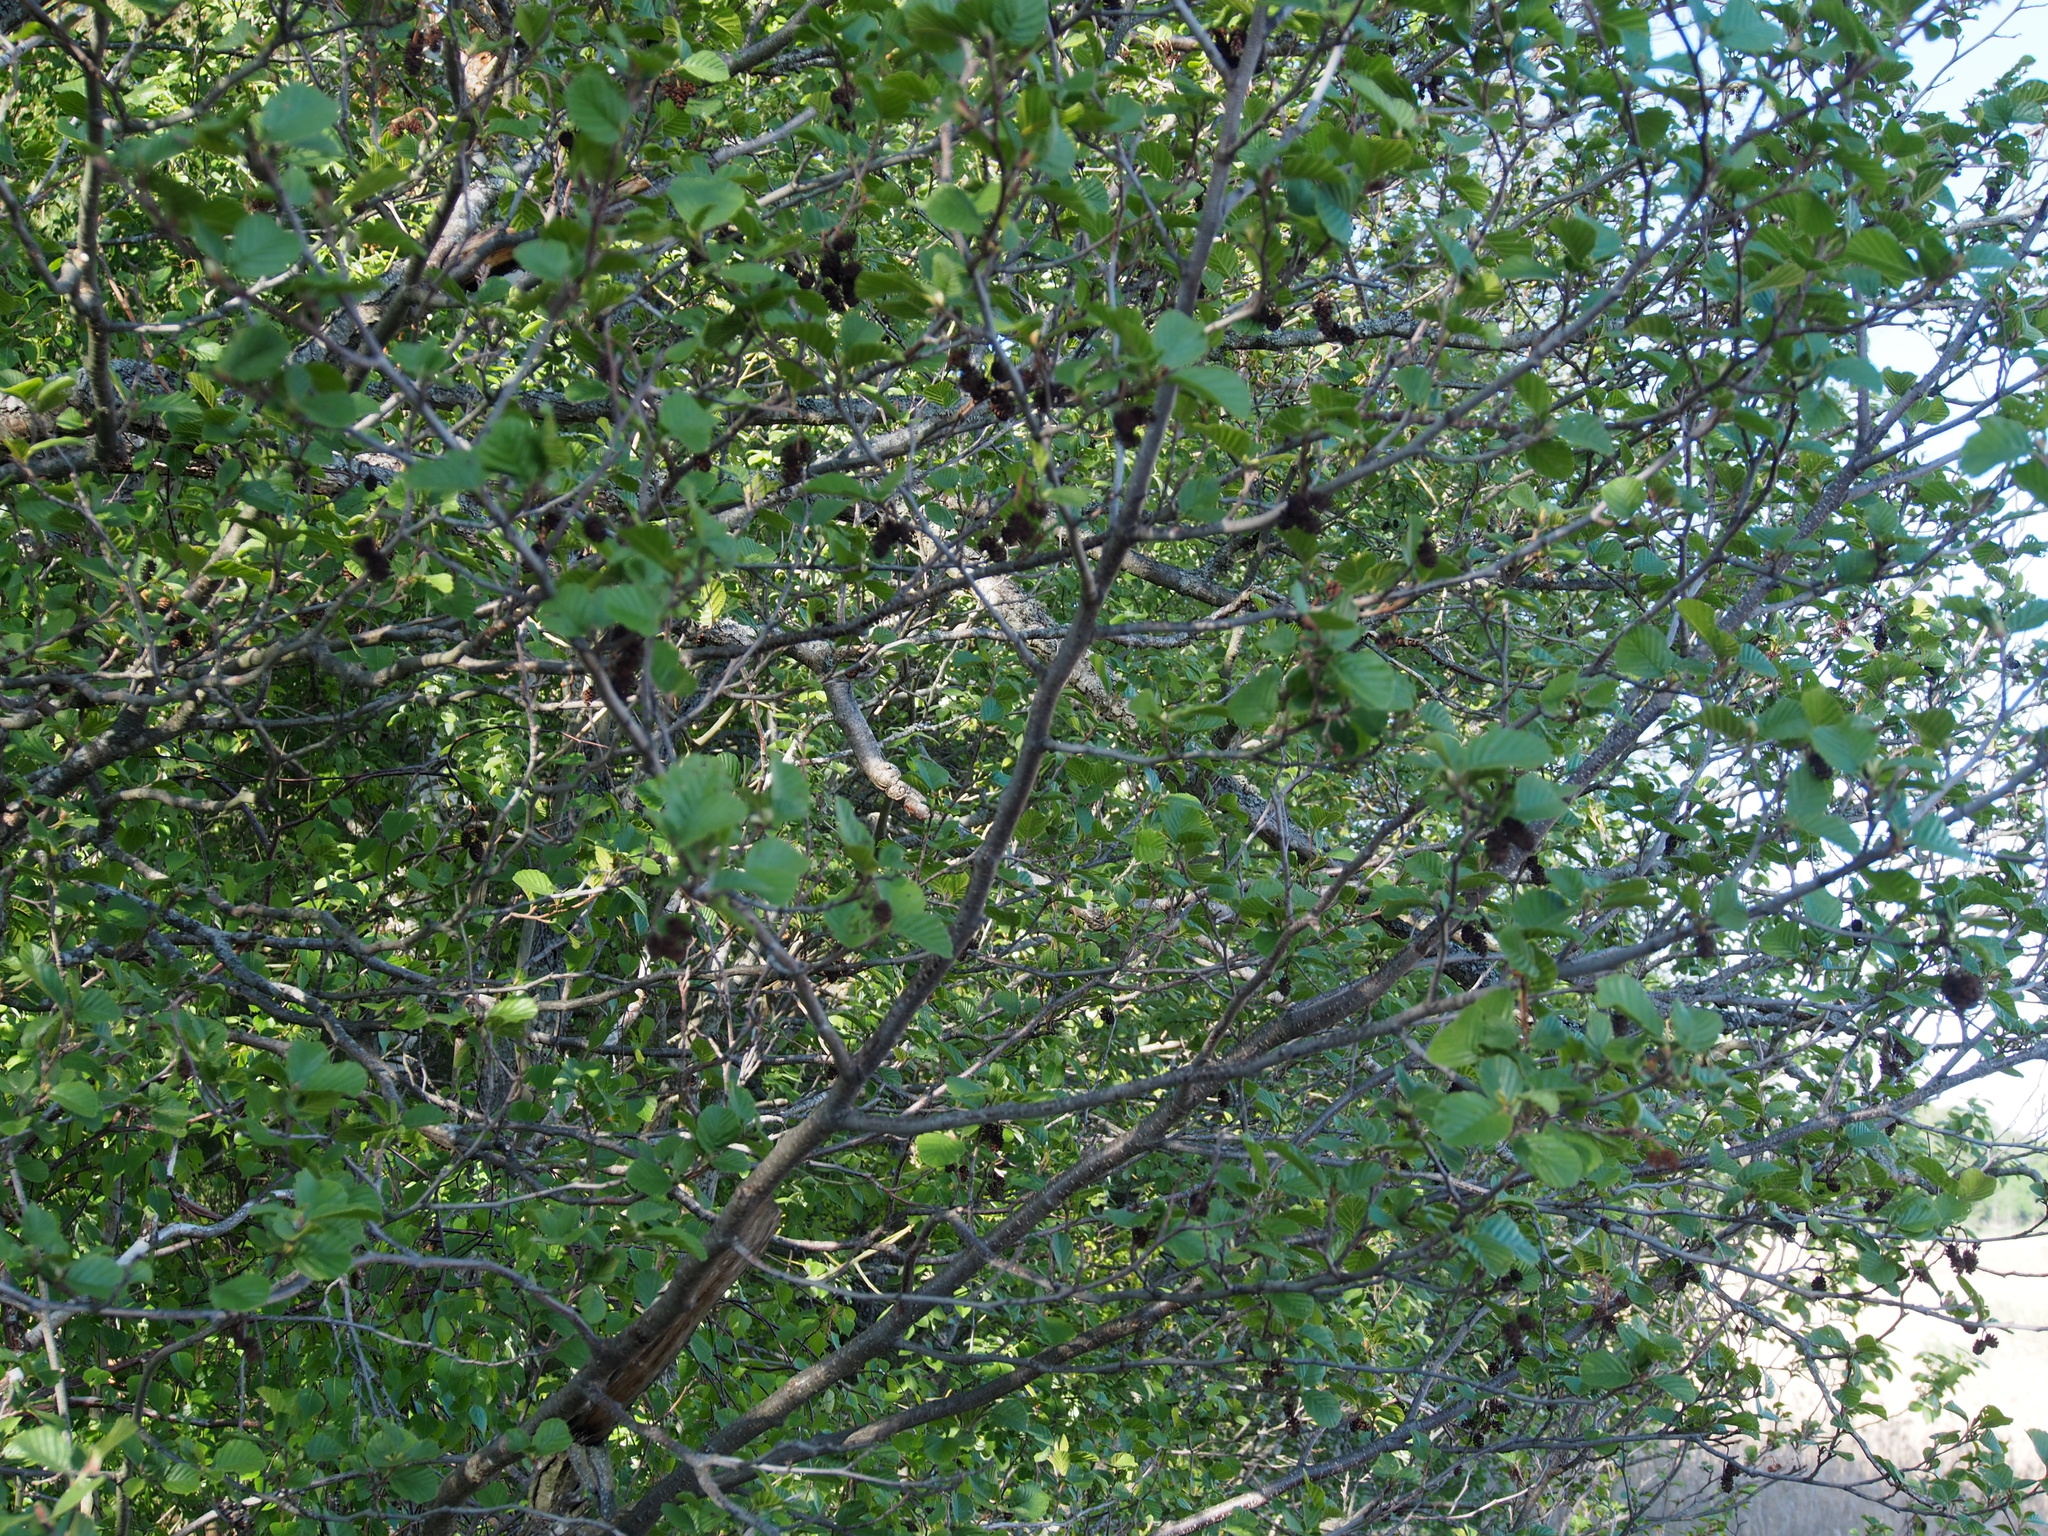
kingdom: Plantae
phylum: Tracheophyta
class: Magnoliopsida
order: Fagales
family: Betulaceae
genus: Alnus
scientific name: Alnus glutinosa
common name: Black alder
